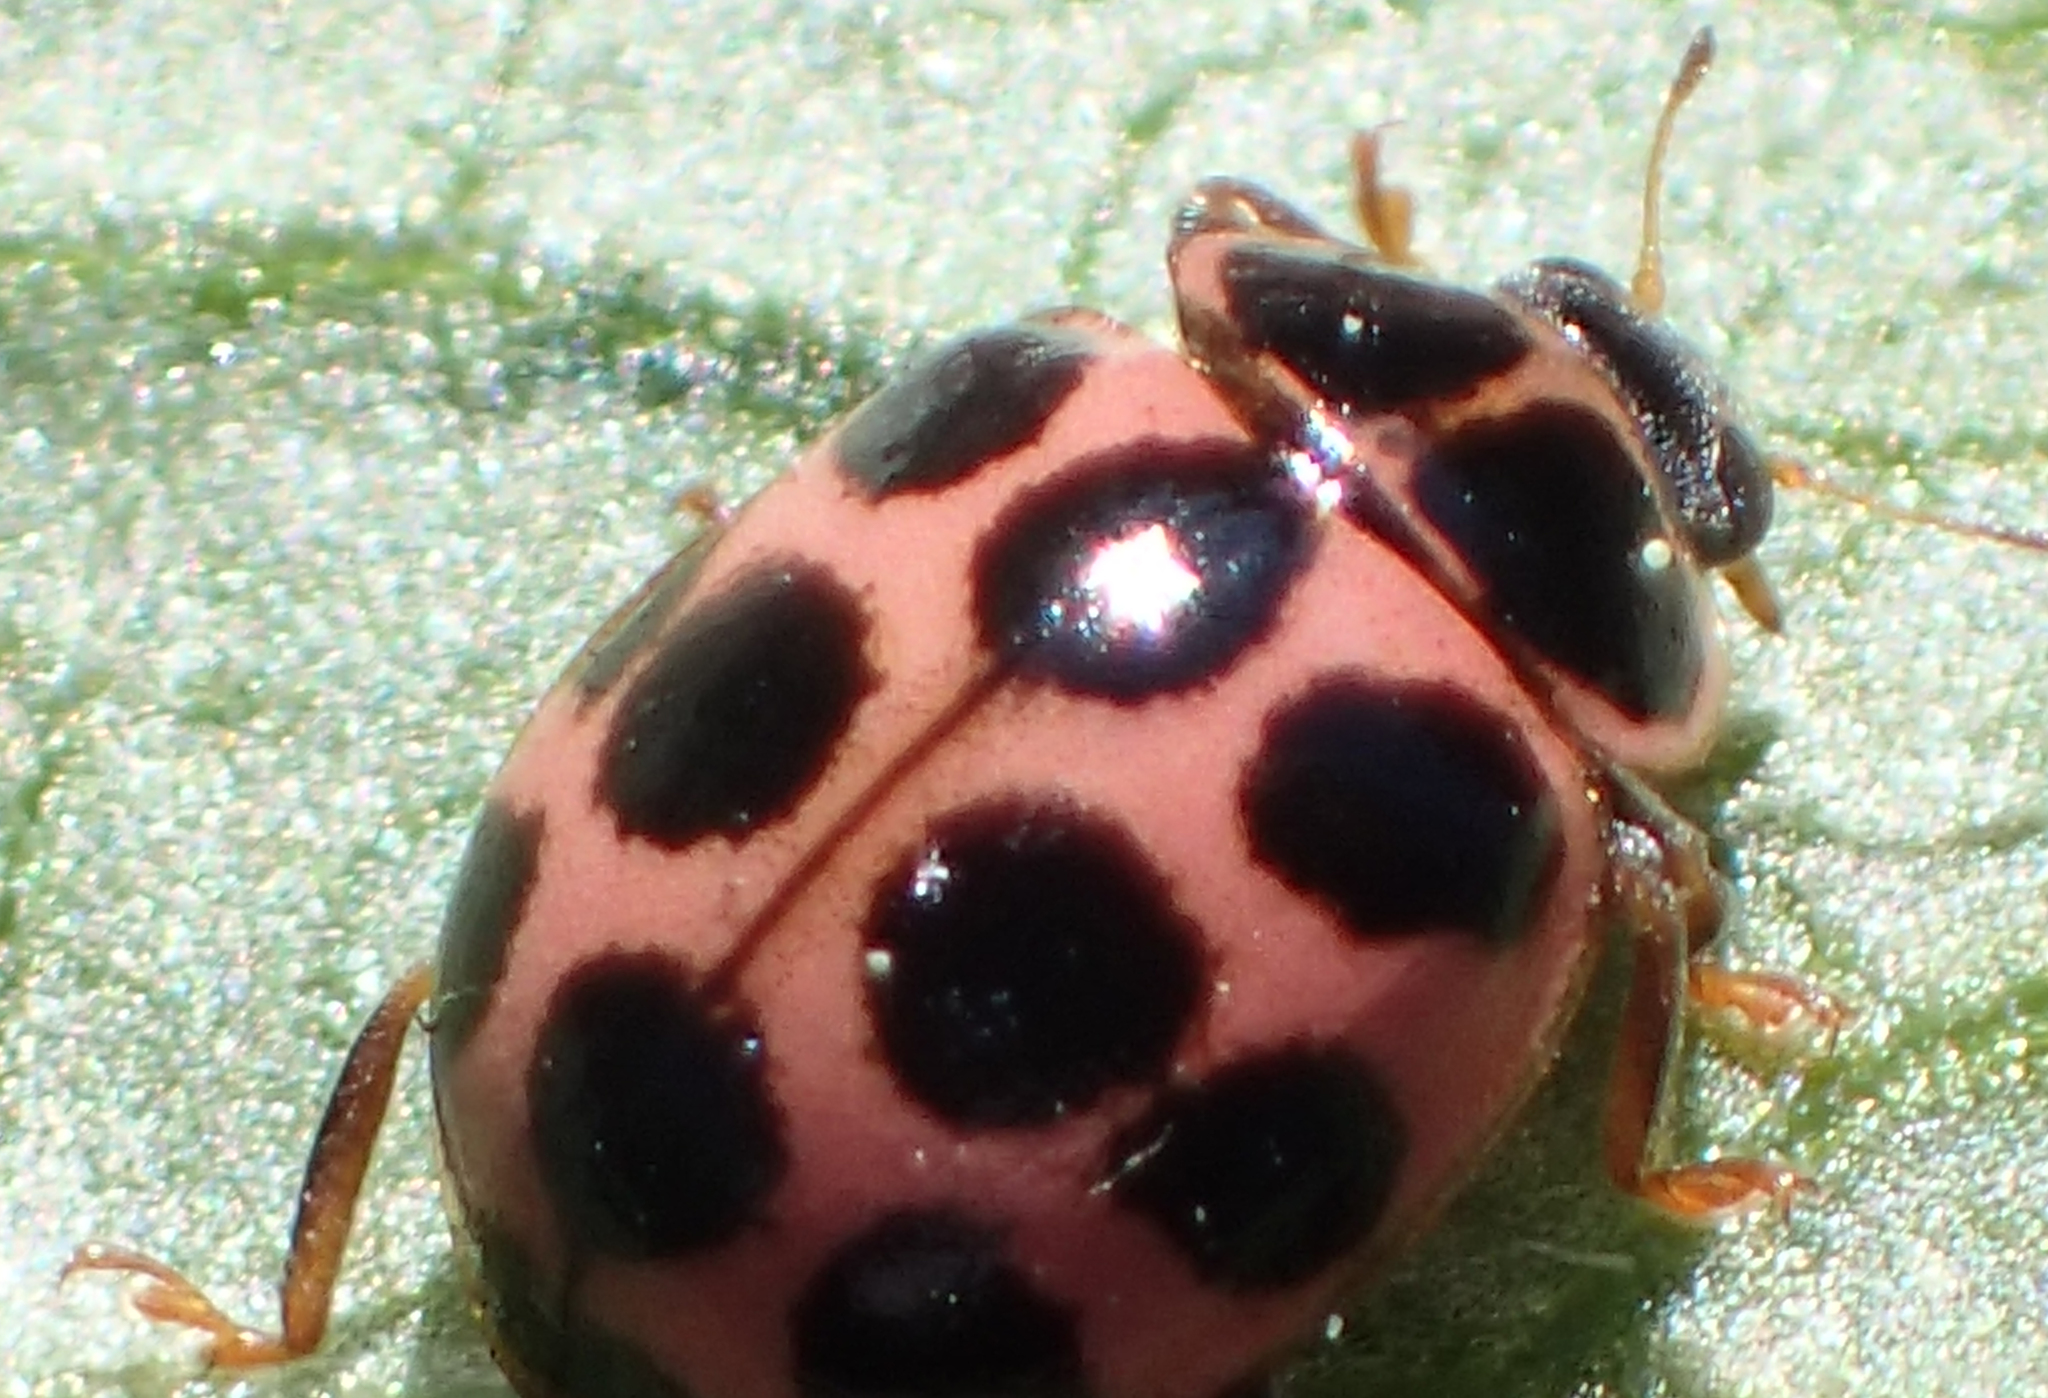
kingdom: Animalia
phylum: Arthropoda
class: Insecta
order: Coleoptera
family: Coccinellidae
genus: Calvia
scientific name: Calvia quatuordecimguttata
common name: Cream-spot ladybird
